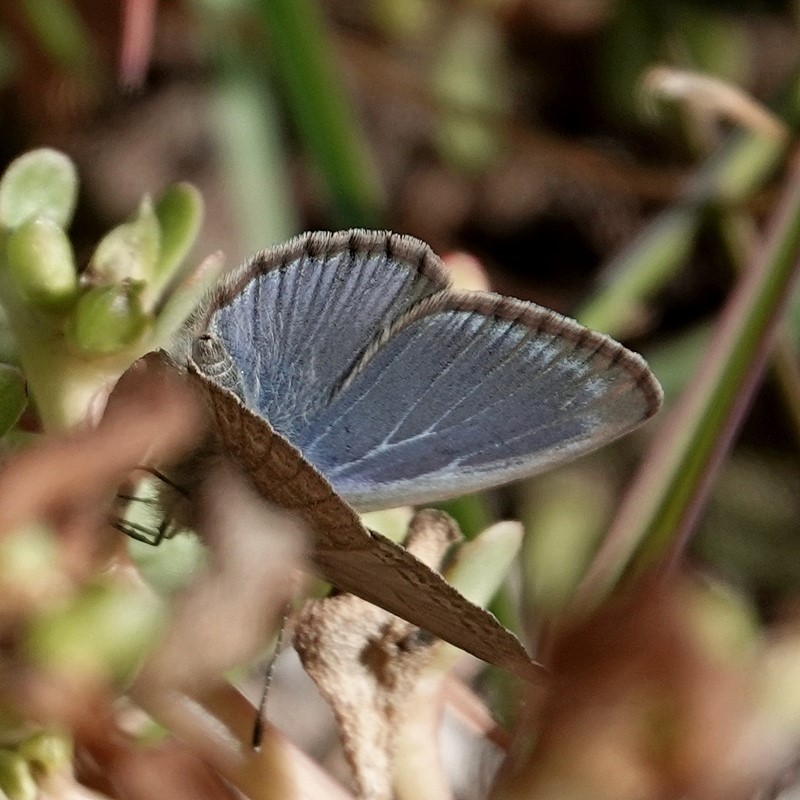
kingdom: Animalia
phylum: Arthropoda
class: Insecta
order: Lepidoptera
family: Lycaenidae
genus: Zizina
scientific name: Zizina labradus
